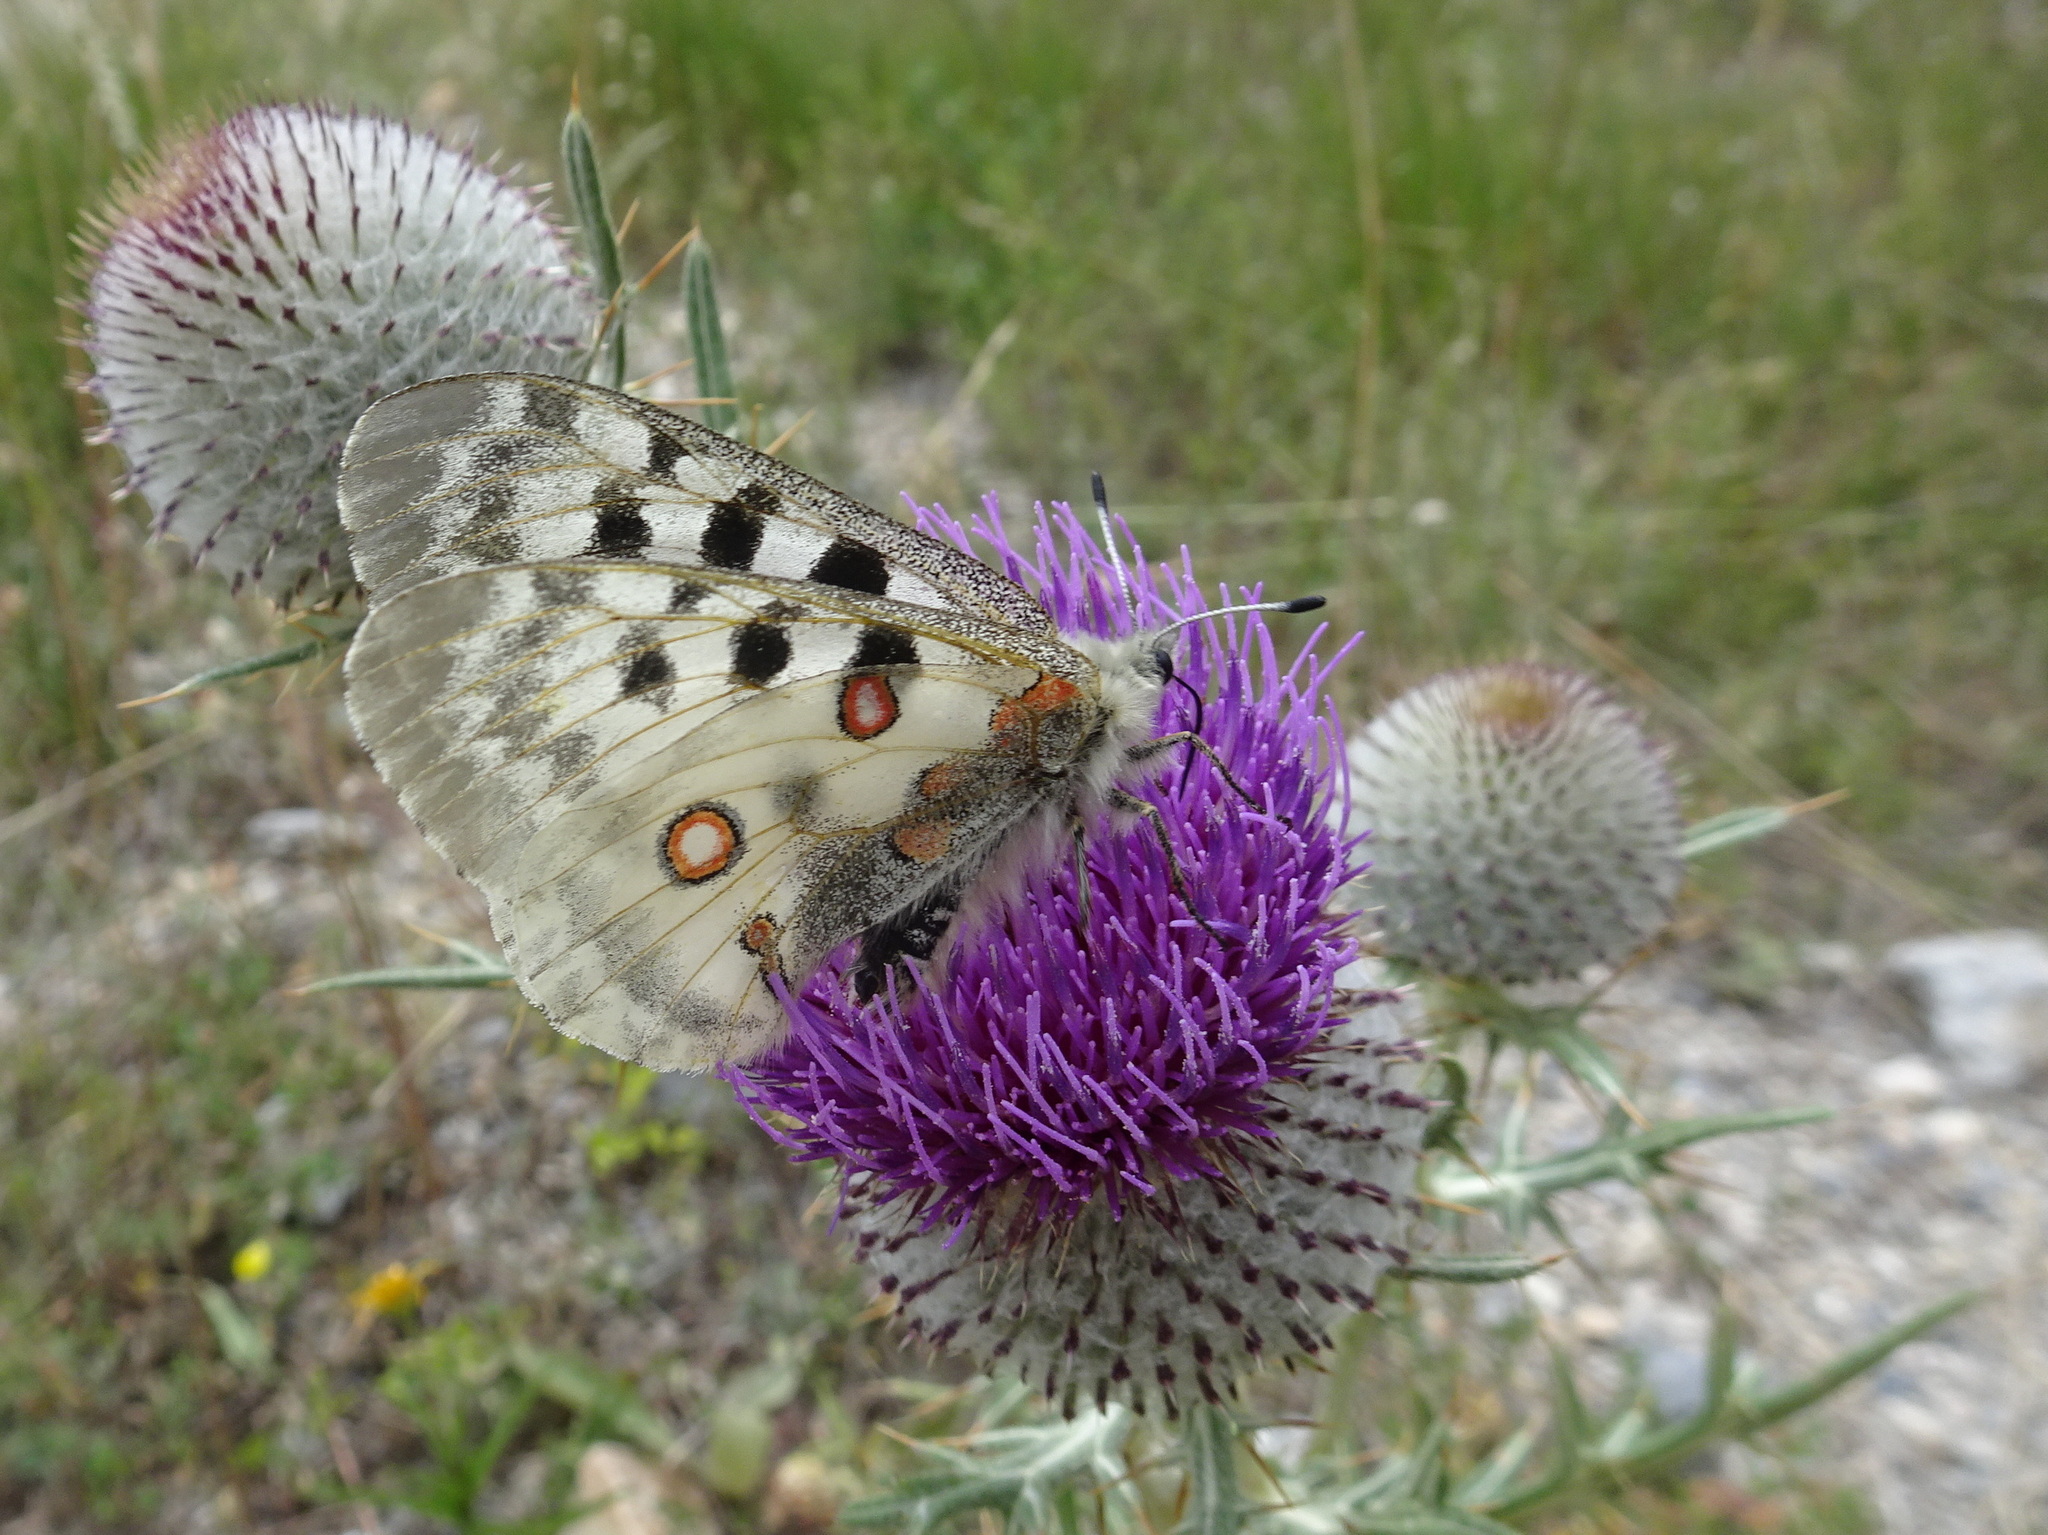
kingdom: Animalia
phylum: Arthropoda
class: Insecta
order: Lepidoptera
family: Papilionidae
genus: Parnassius
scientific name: Parnassius apollo
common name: Apollo
